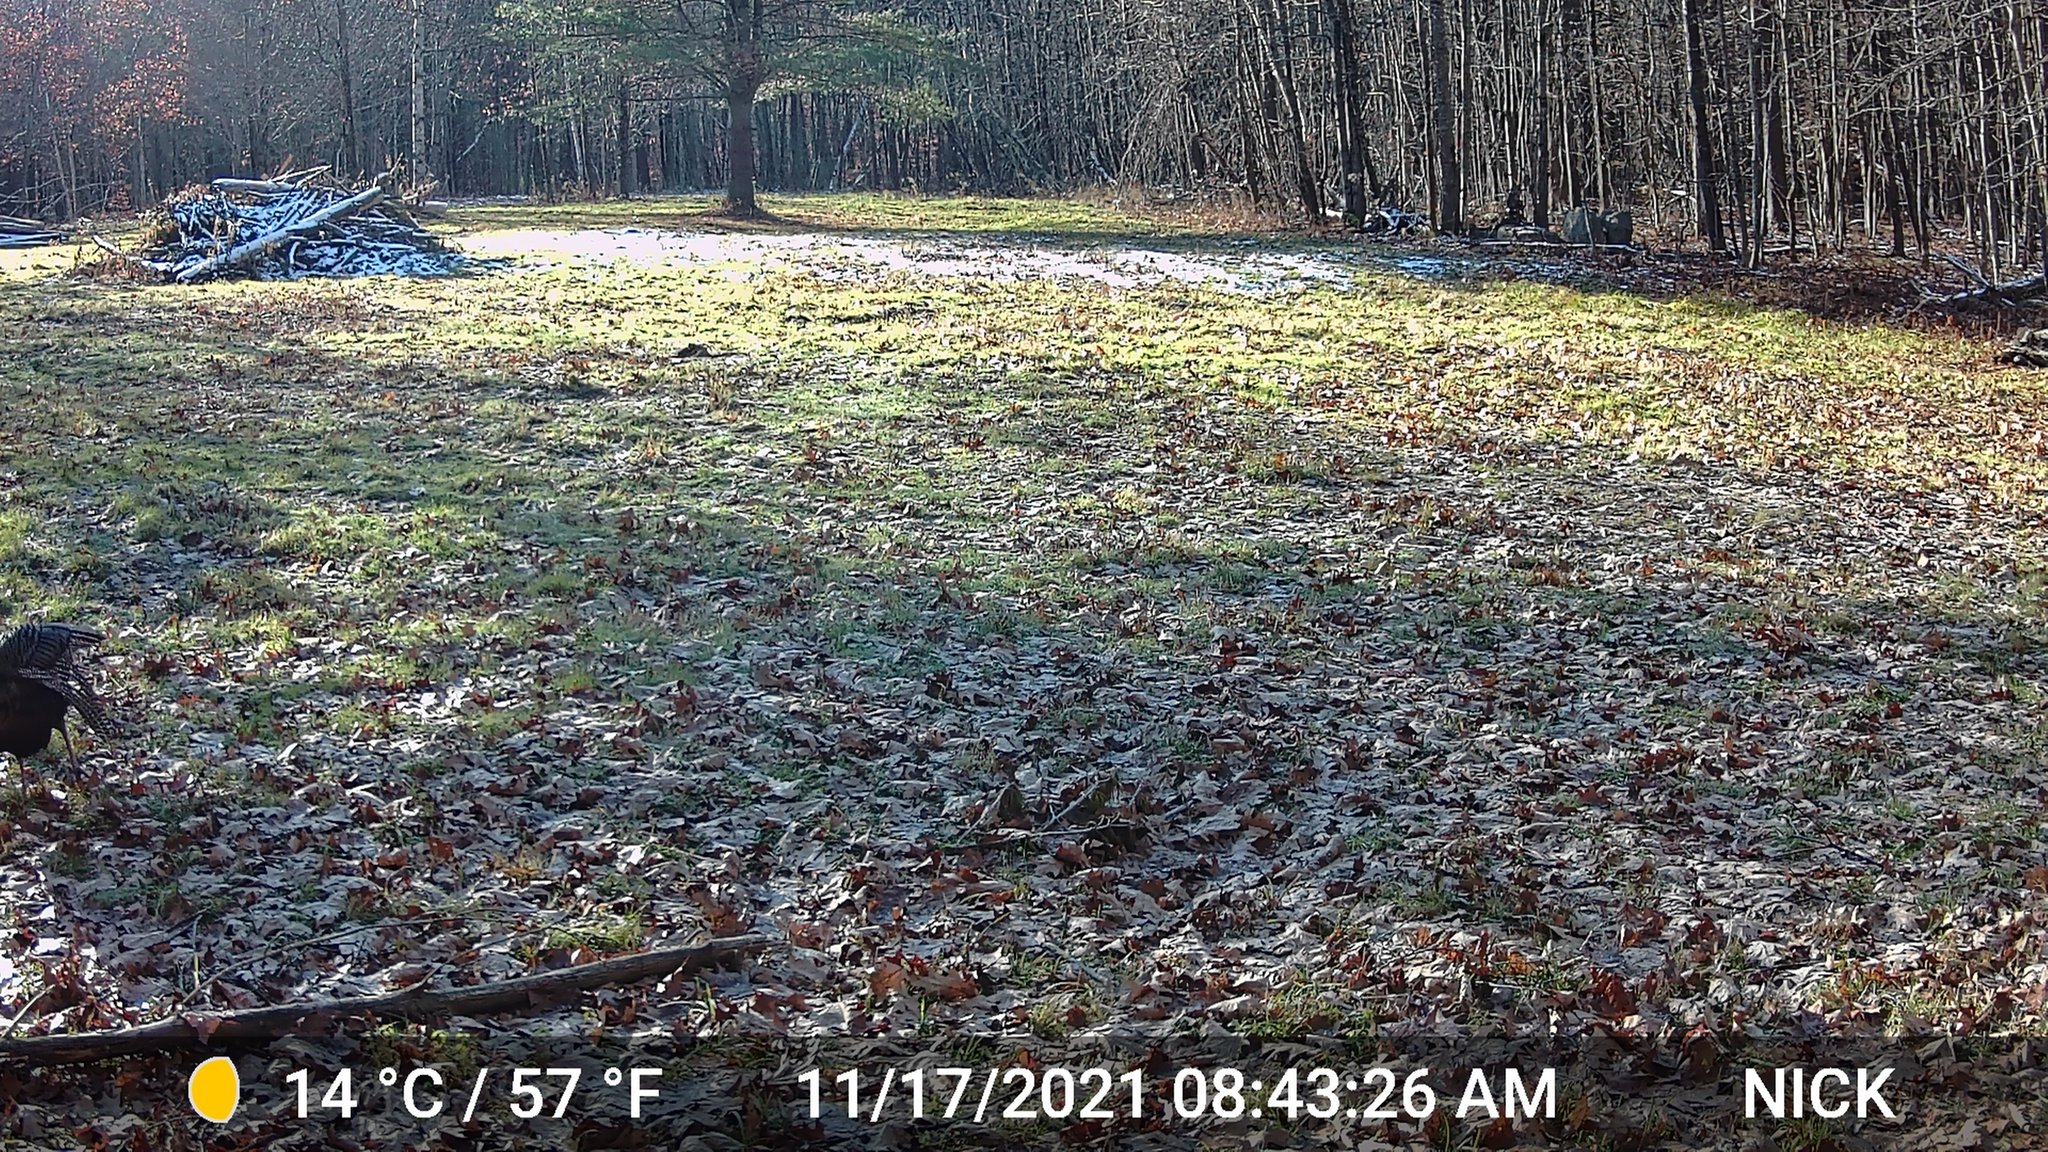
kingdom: Animalia
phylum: Chordata
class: Aves
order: Galliformes
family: Phasianidae
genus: Meleagris
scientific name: Meleagris gallopavo
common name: Wild turkey
